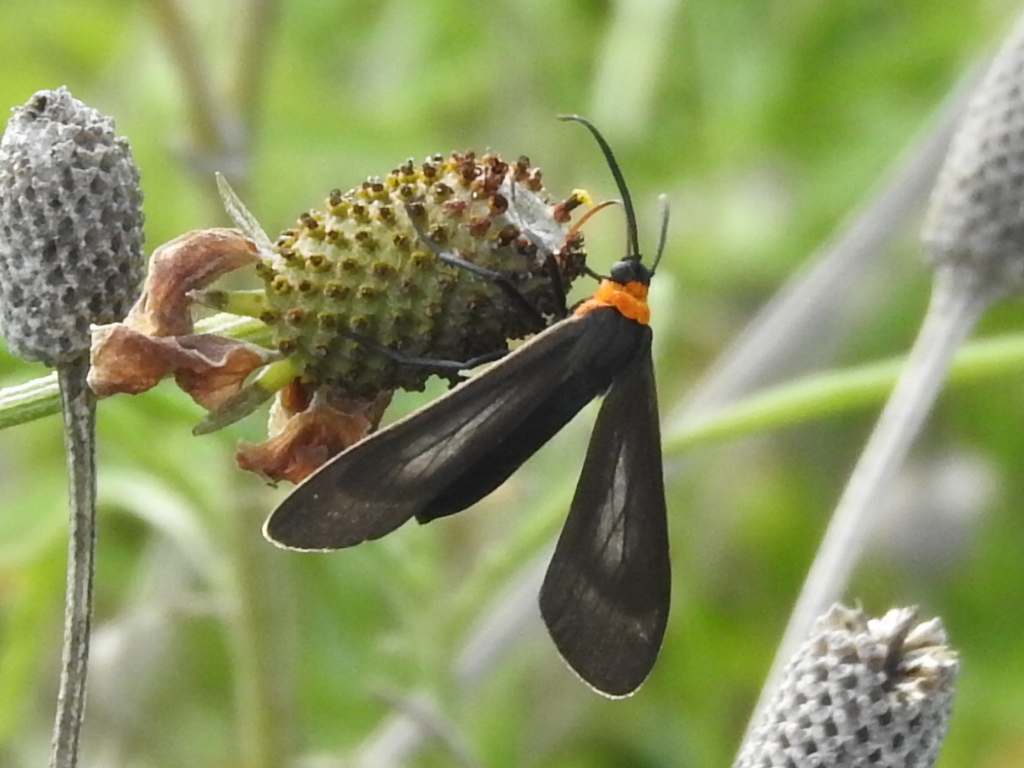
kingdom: Animalia
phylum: Arthropoda
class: Insecta
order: Lepidoptera
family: Erebidae
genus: Cisseps
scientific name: Cisseps fulvicollis
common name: Yellow-collared scape moth
